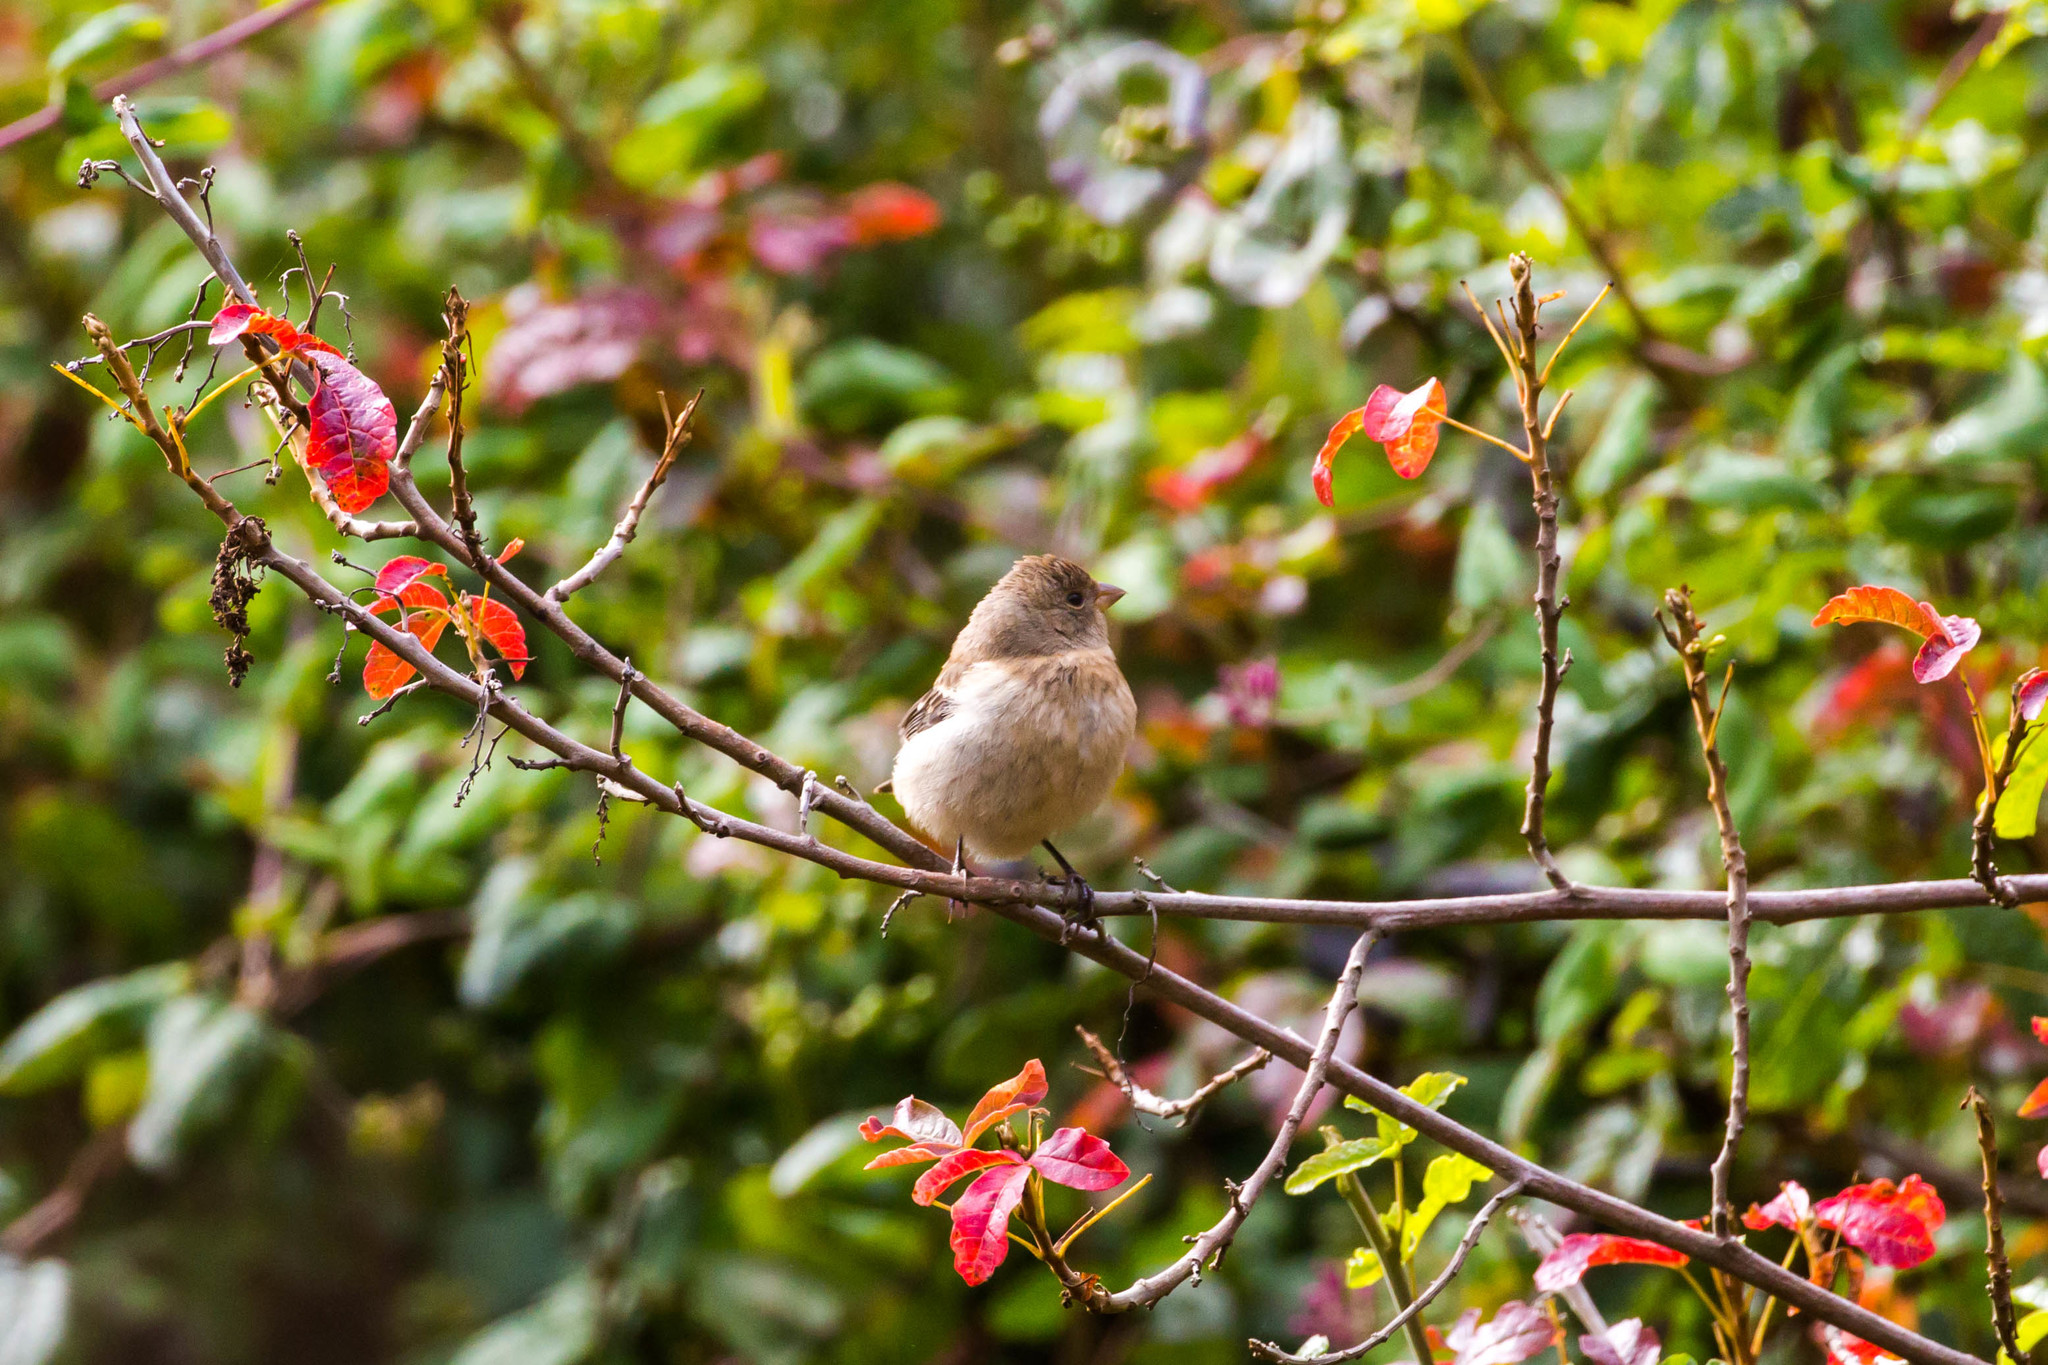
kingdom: Animalia
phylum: Chordata
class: Aves
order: Passeriformes
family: Cardinalidae
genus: Passerina
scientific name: Passerina amoena
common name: Lazuli bunting
